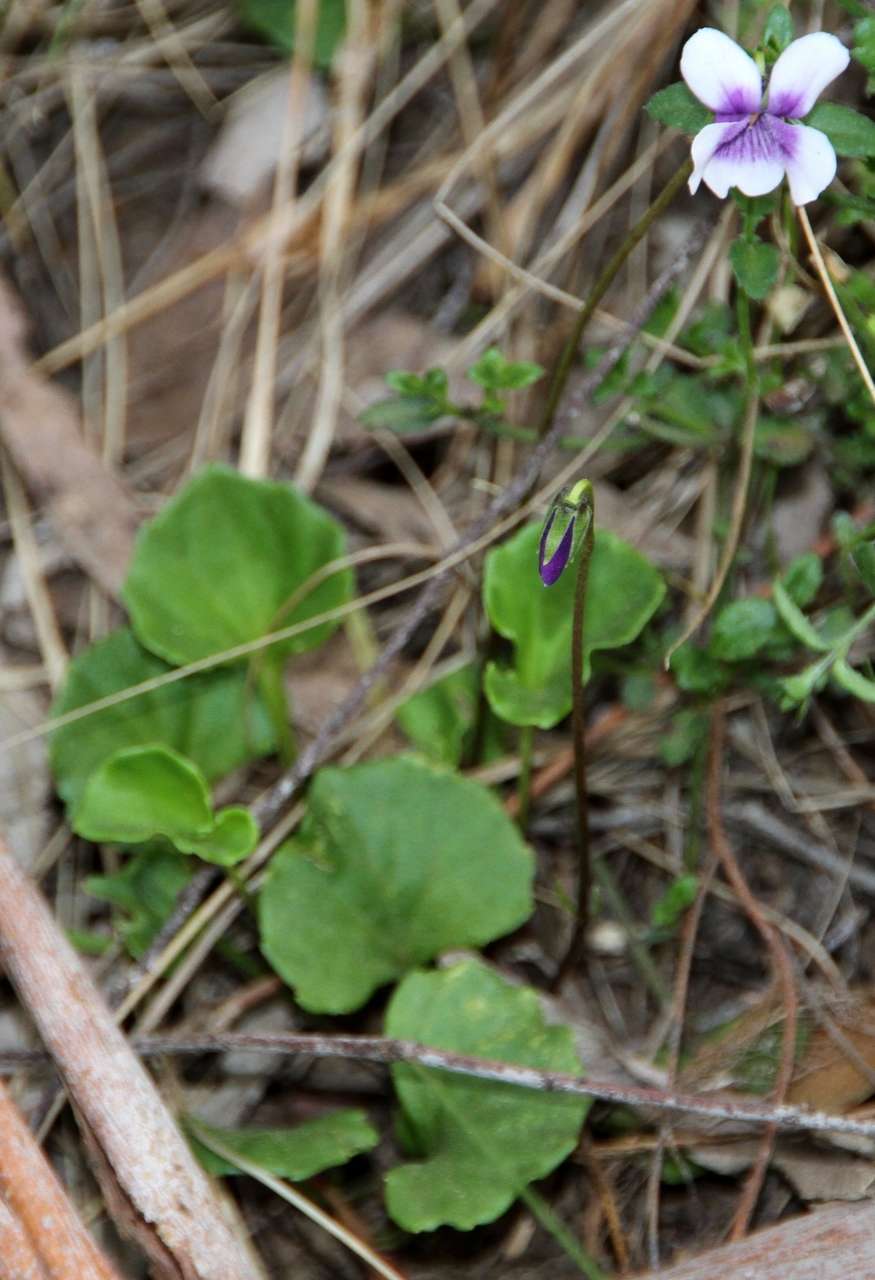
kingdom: Plantae
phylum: Tracheophyta
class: Magnoliopsida
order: Malpighiales
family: Violaceae
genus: Viola
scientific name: Viola hederacea
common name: Australian violet
